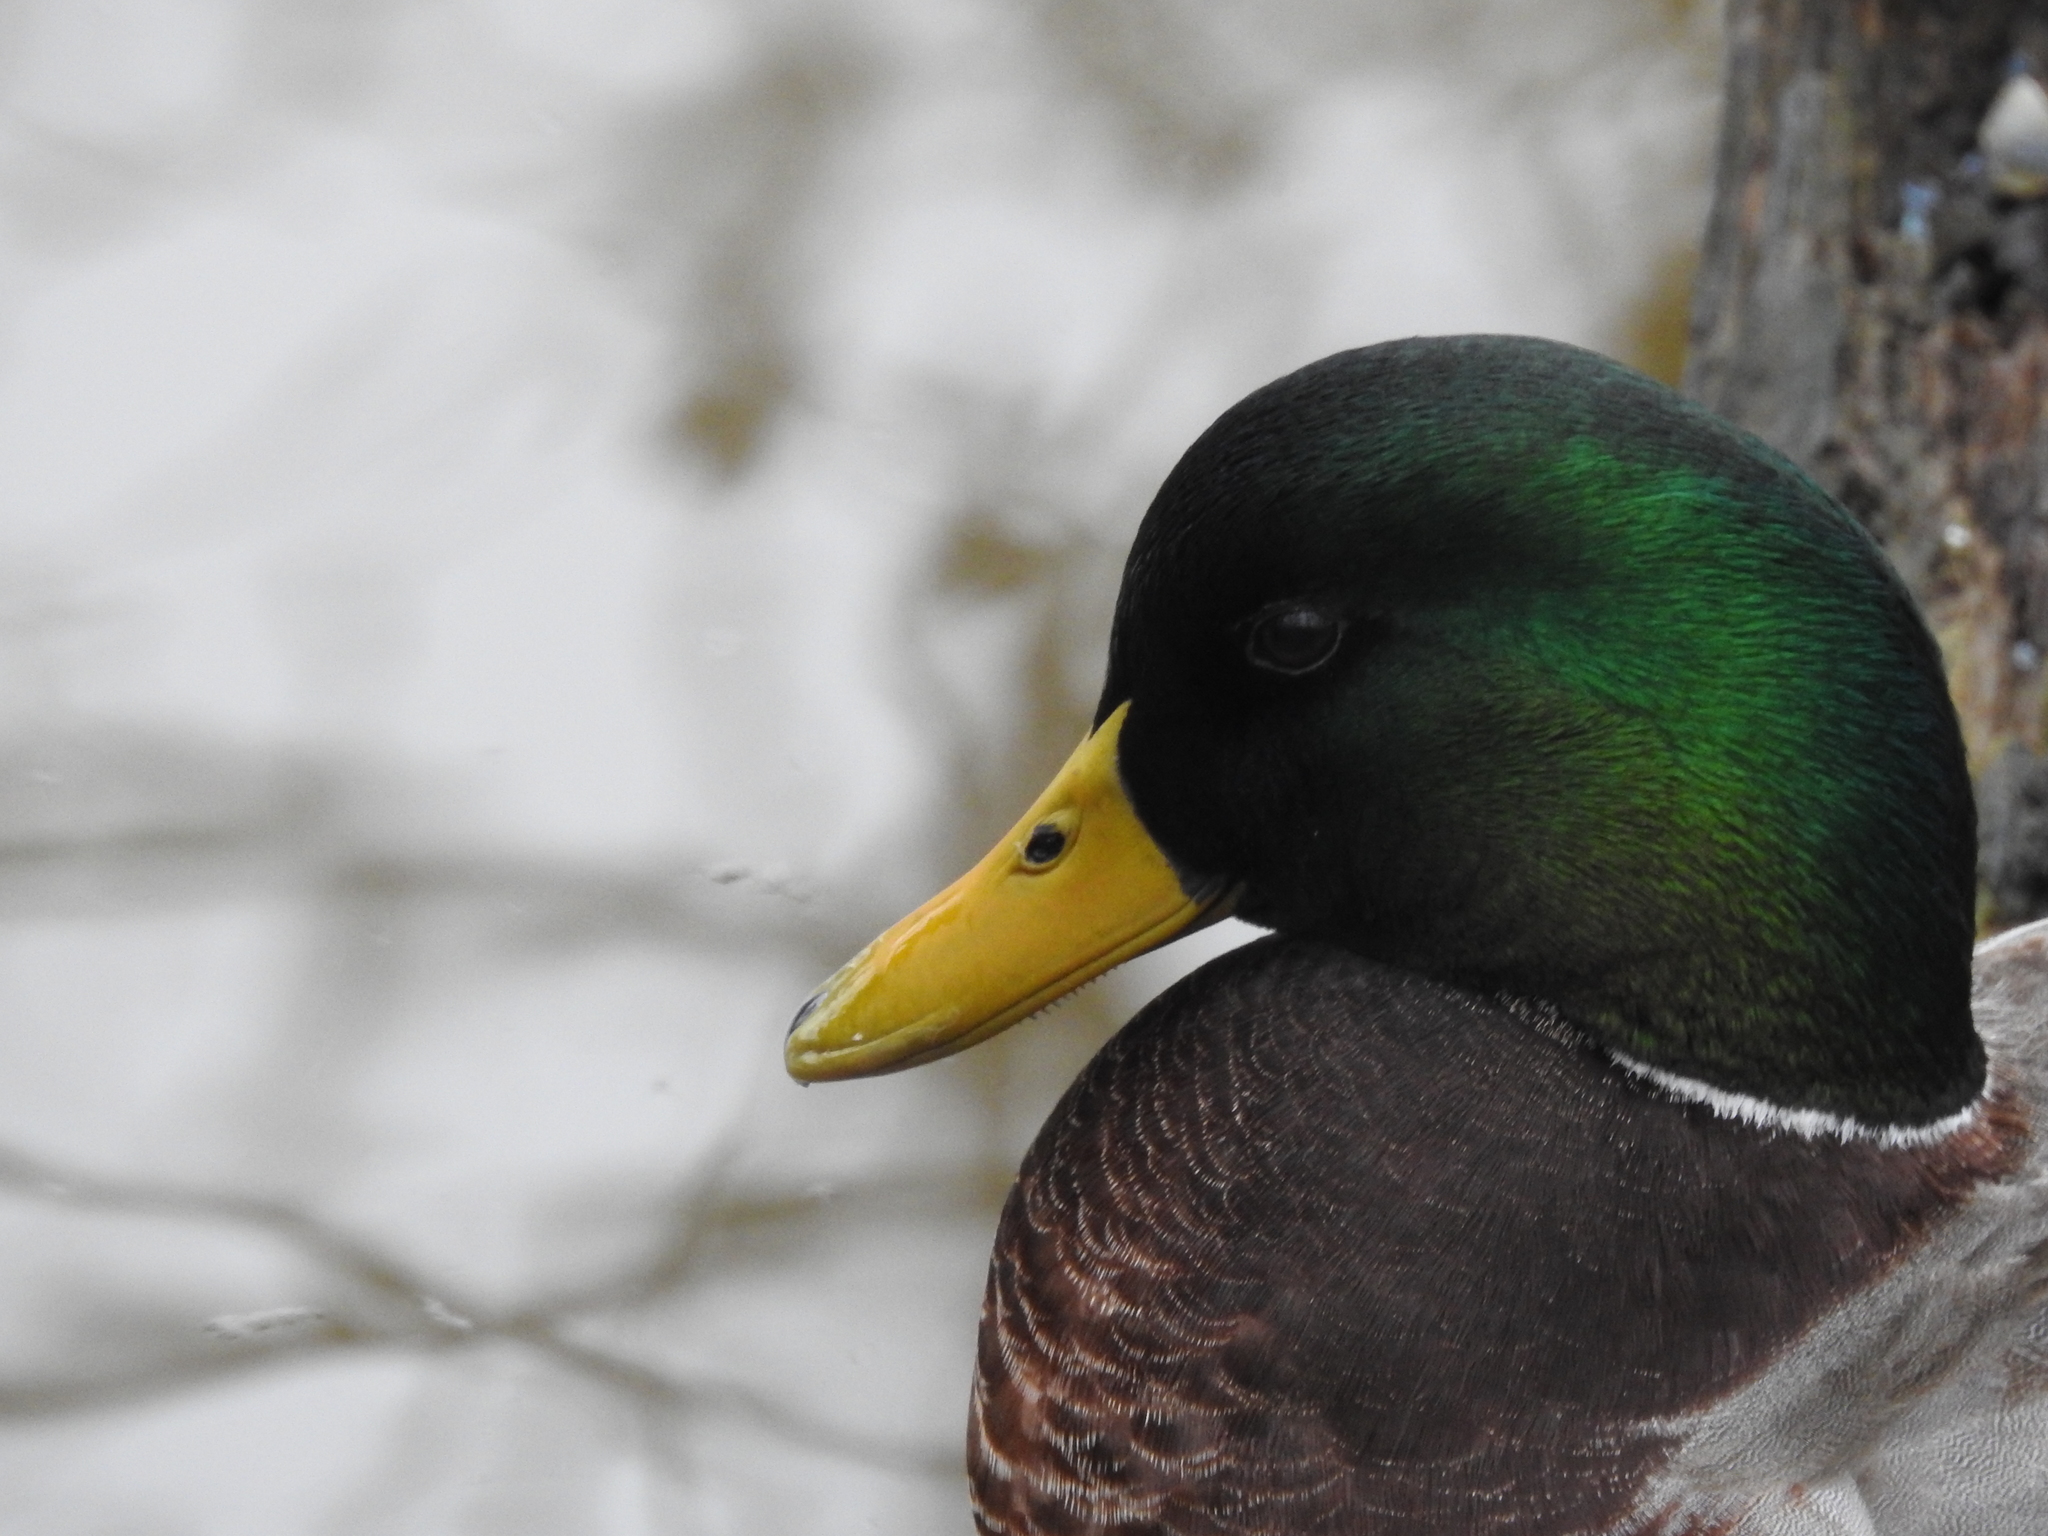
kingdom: Animalia
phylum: Chordata
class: Aves
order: Anseriformes
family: Anatidae
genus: Anas
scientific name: Anas platyrhynchos
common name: Mallard
